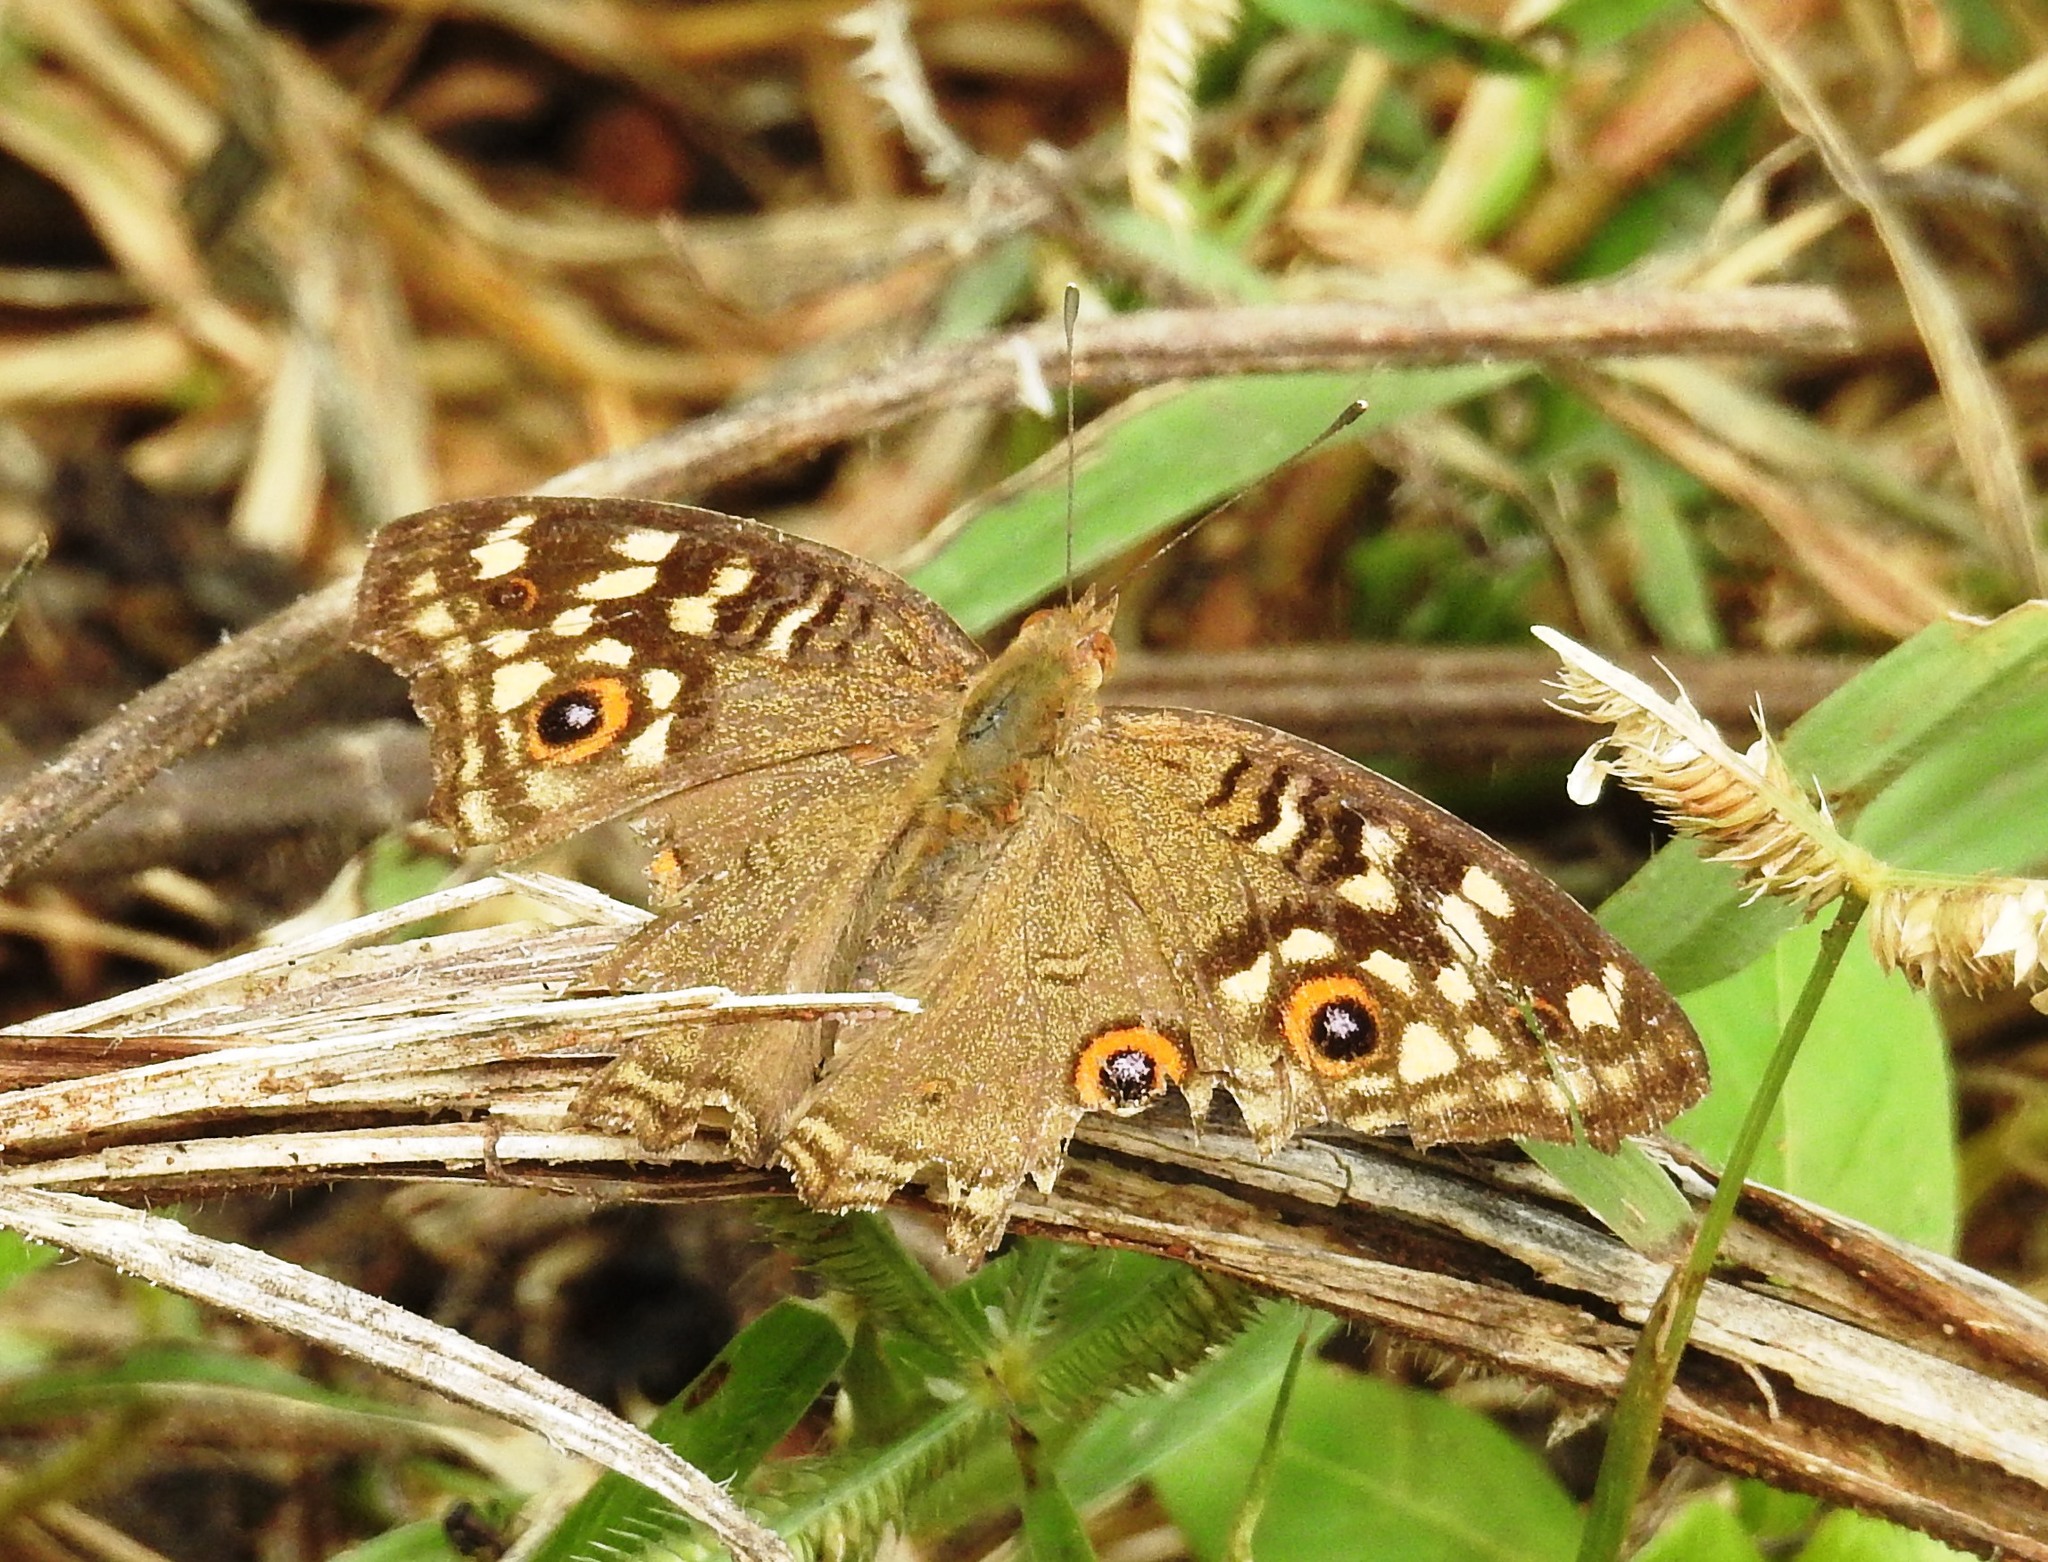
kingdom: Animalia
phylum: Arthropoda
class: Insecta
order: Lepidoptera
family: Nymphalidae
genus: Junonia
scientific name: Junonia lemonias
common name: Lemon pansy
